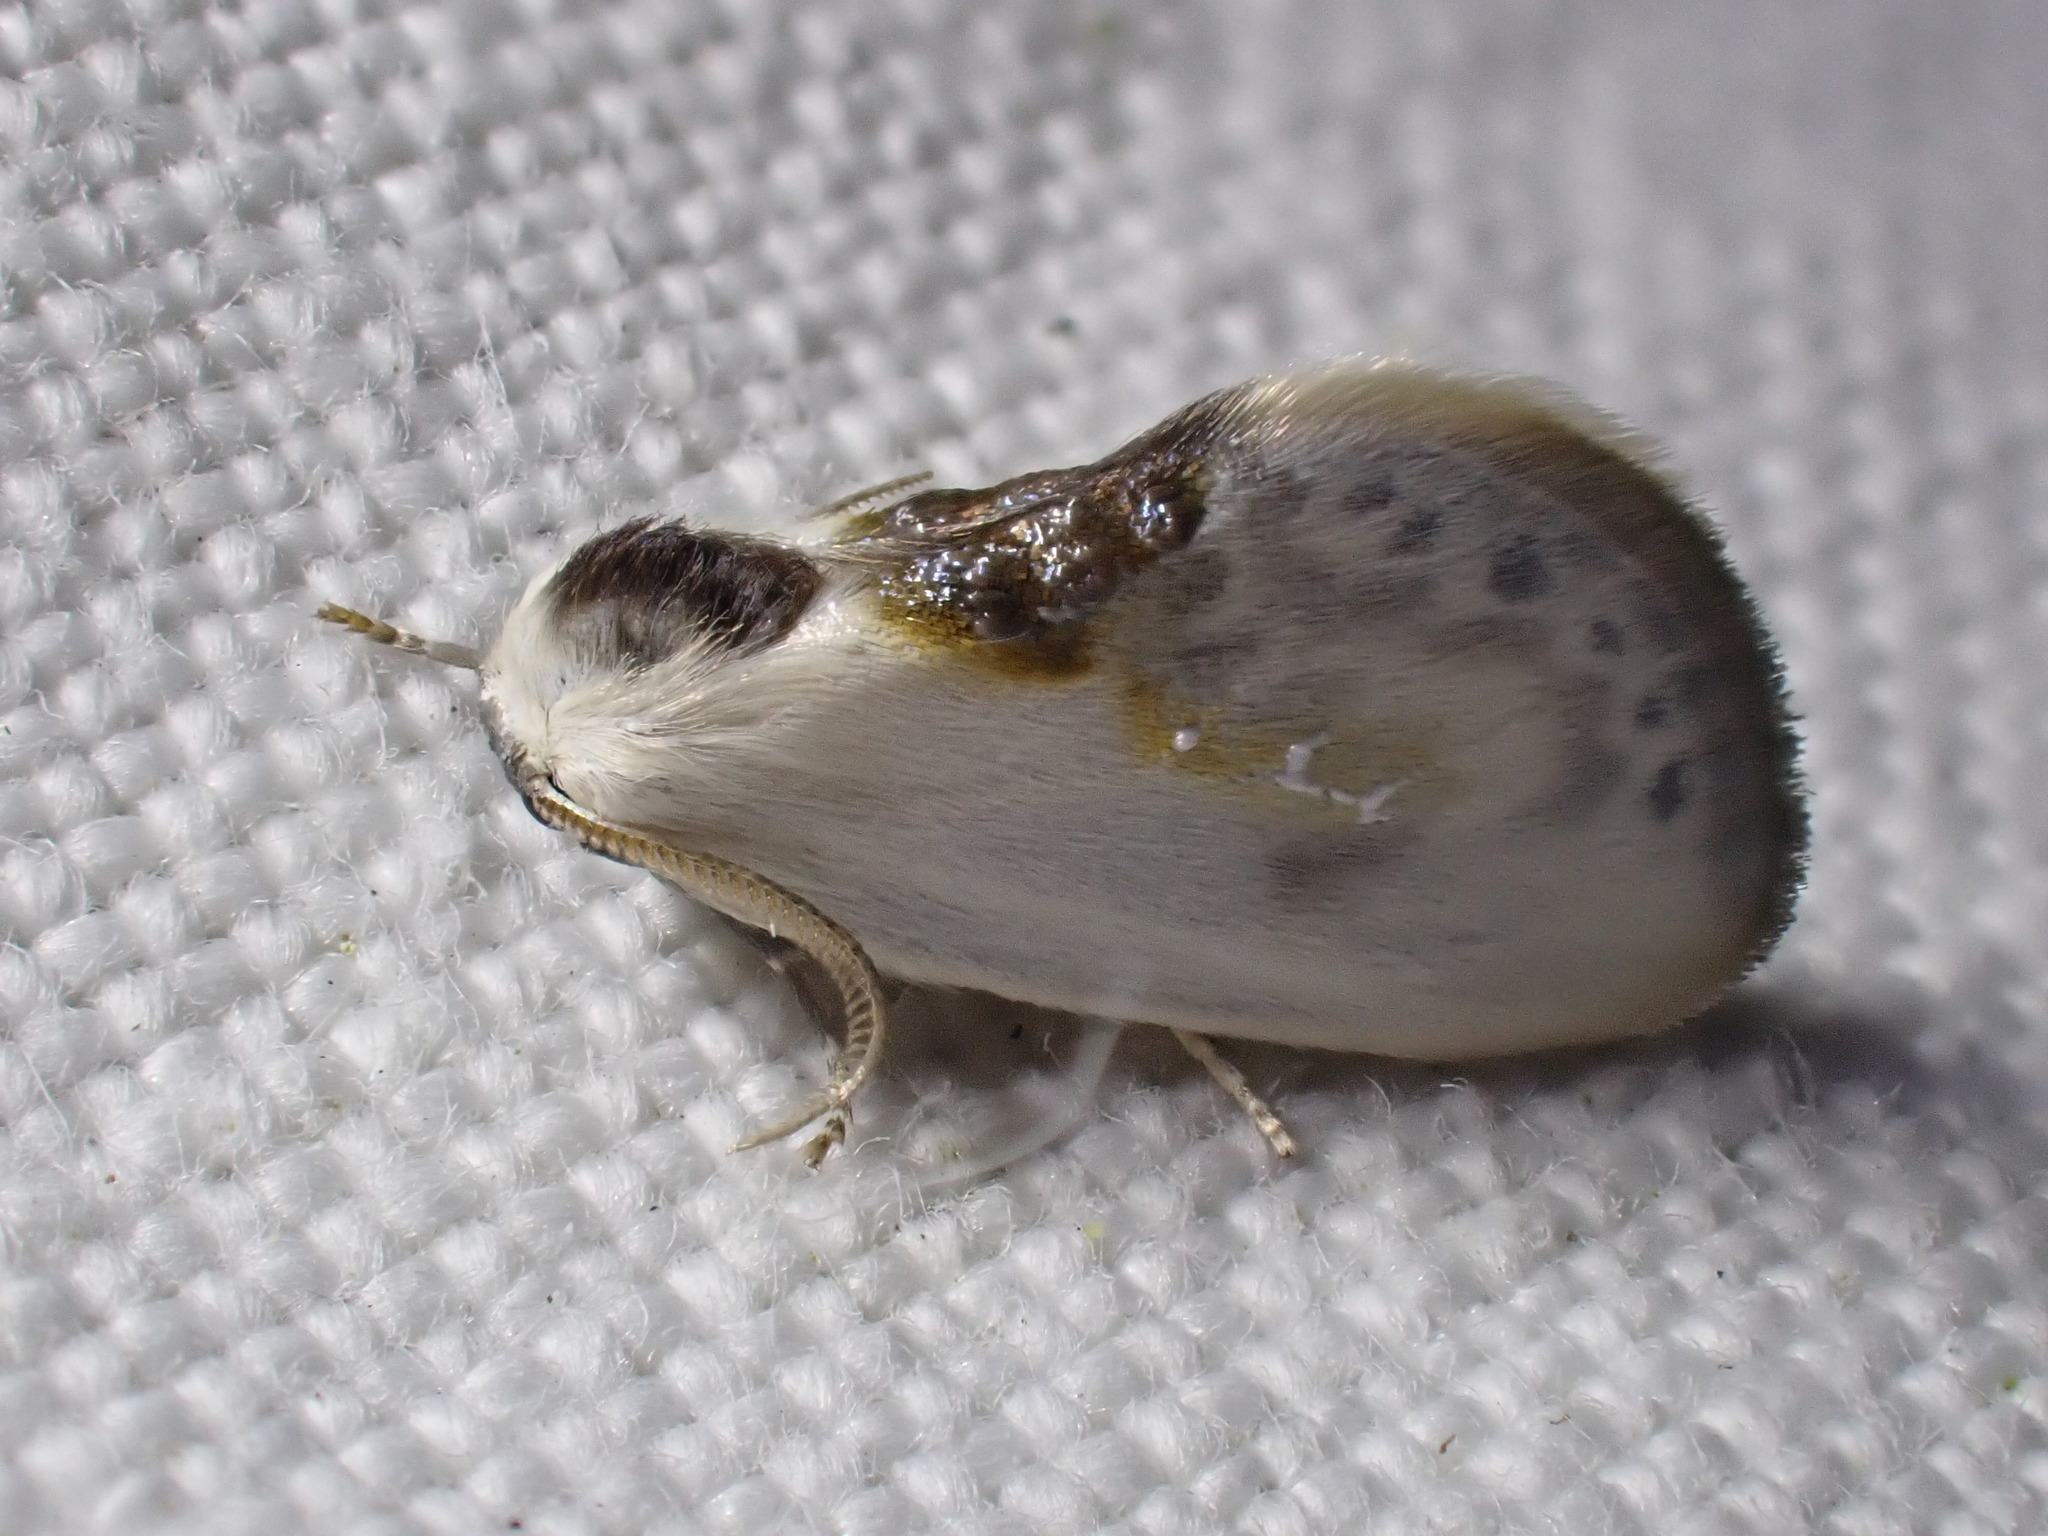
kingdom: Animalia
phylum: Arthropoda
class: Insecta
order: Lepidoptera
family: Drepanidae
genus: Cilix
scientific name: Cilix glaucata
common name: Chinese character
